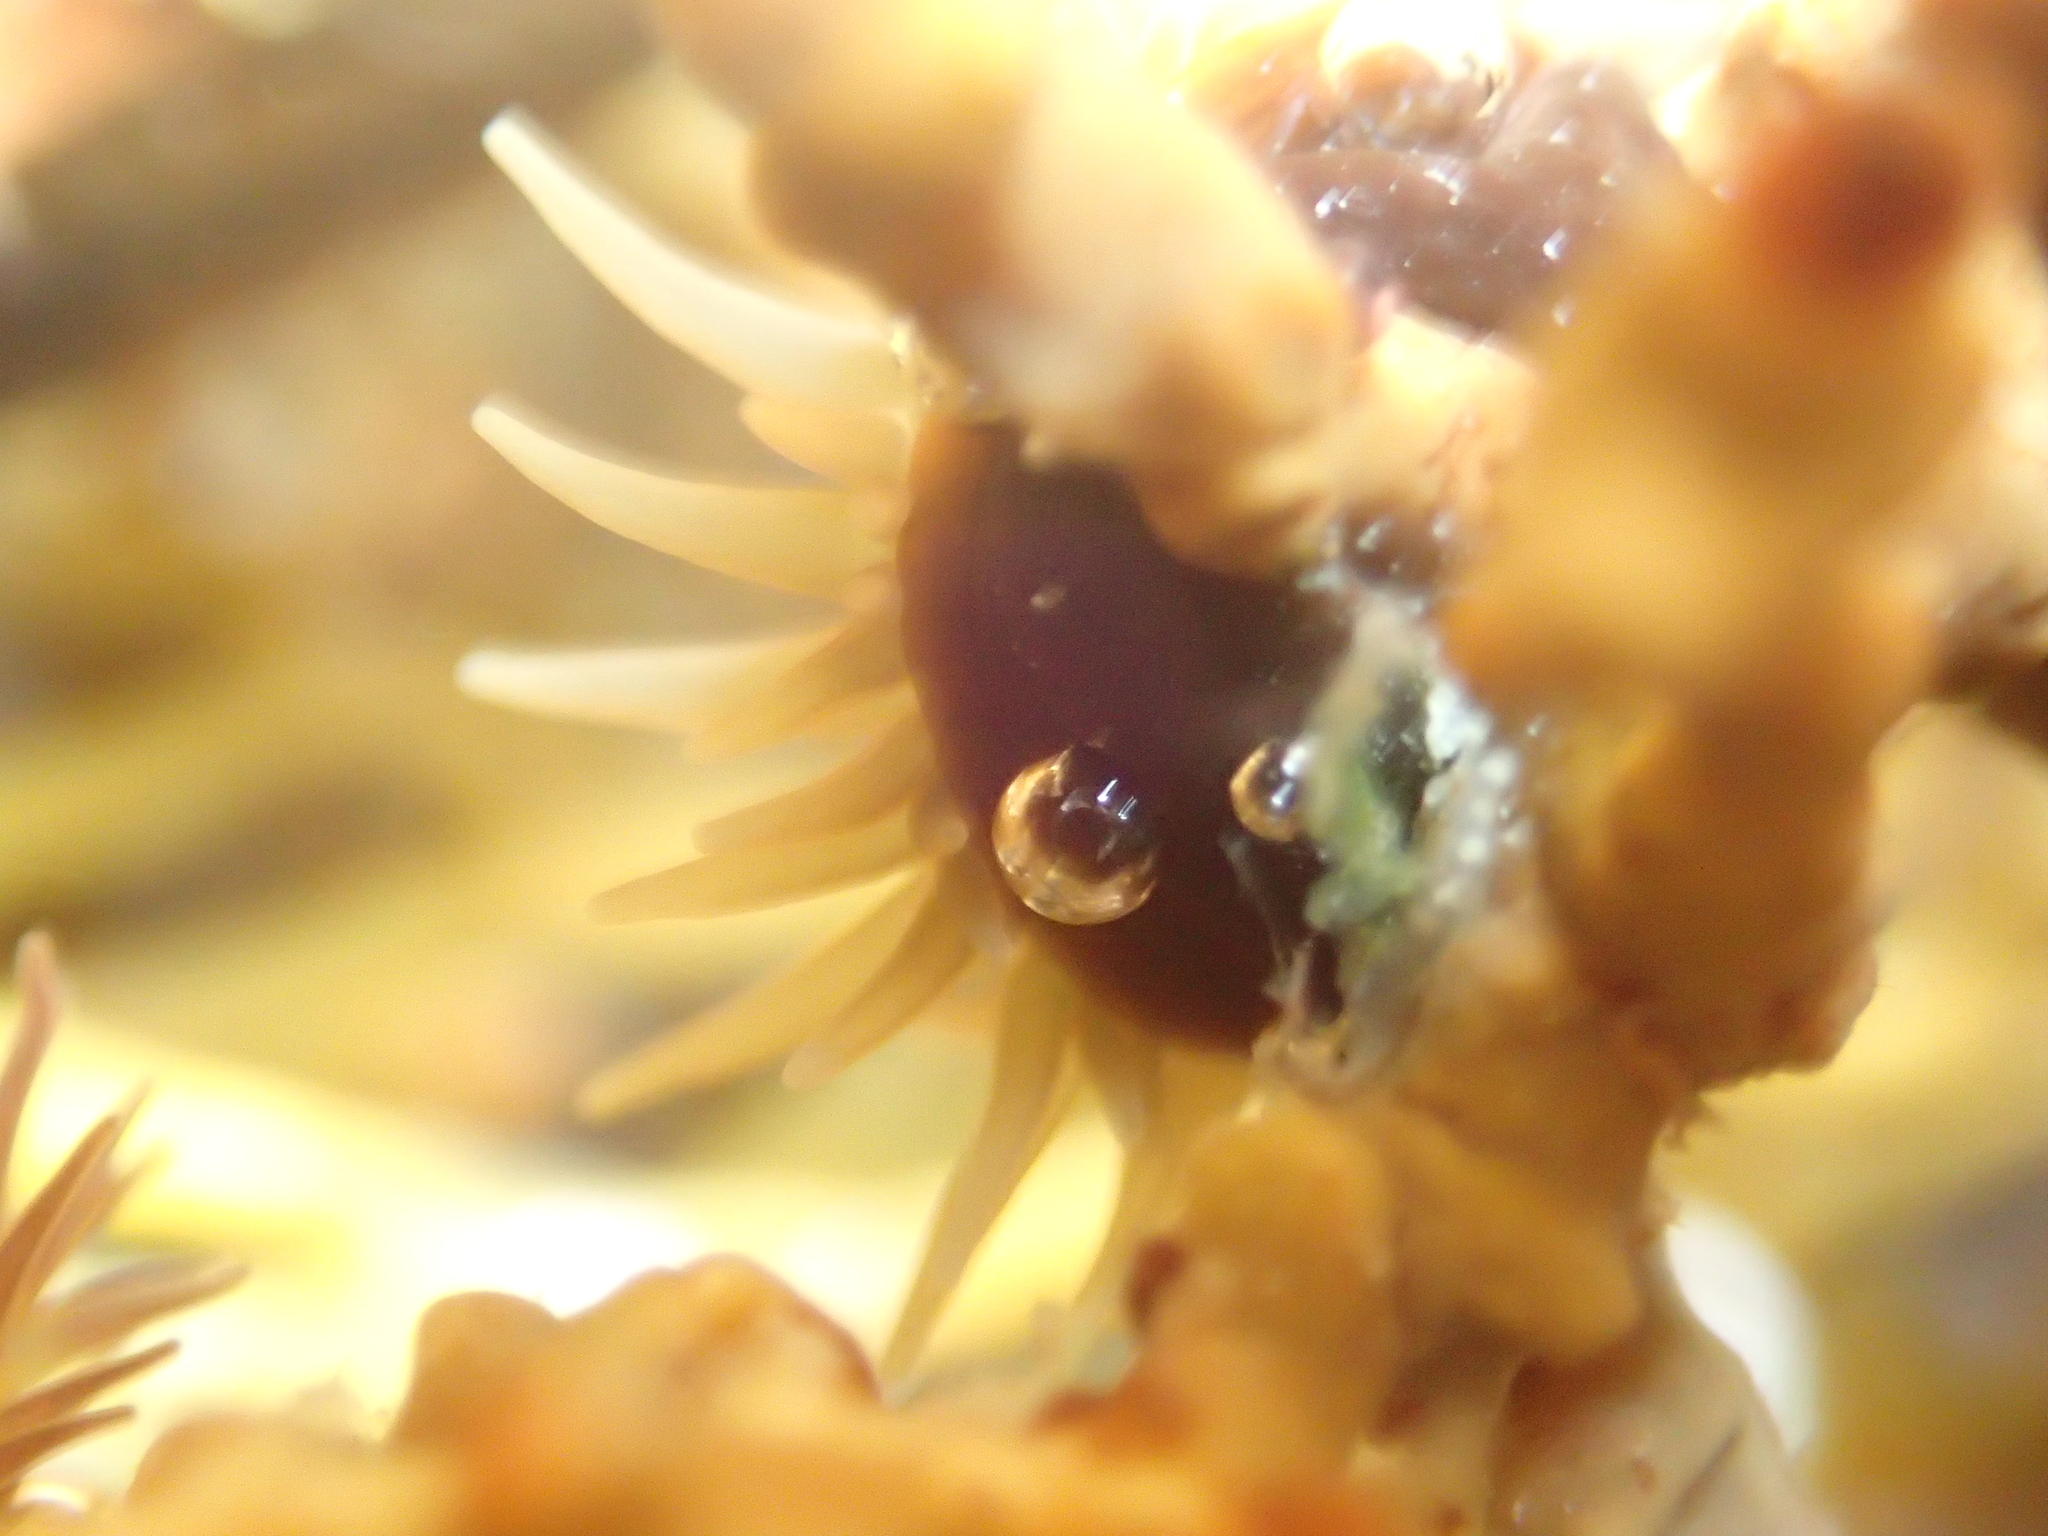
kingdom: Animalia
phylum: Cnidaria
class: Anthozoa
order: Actiniaria
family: Hormathiidae
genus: Handactis
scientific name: Handactis nutrix
